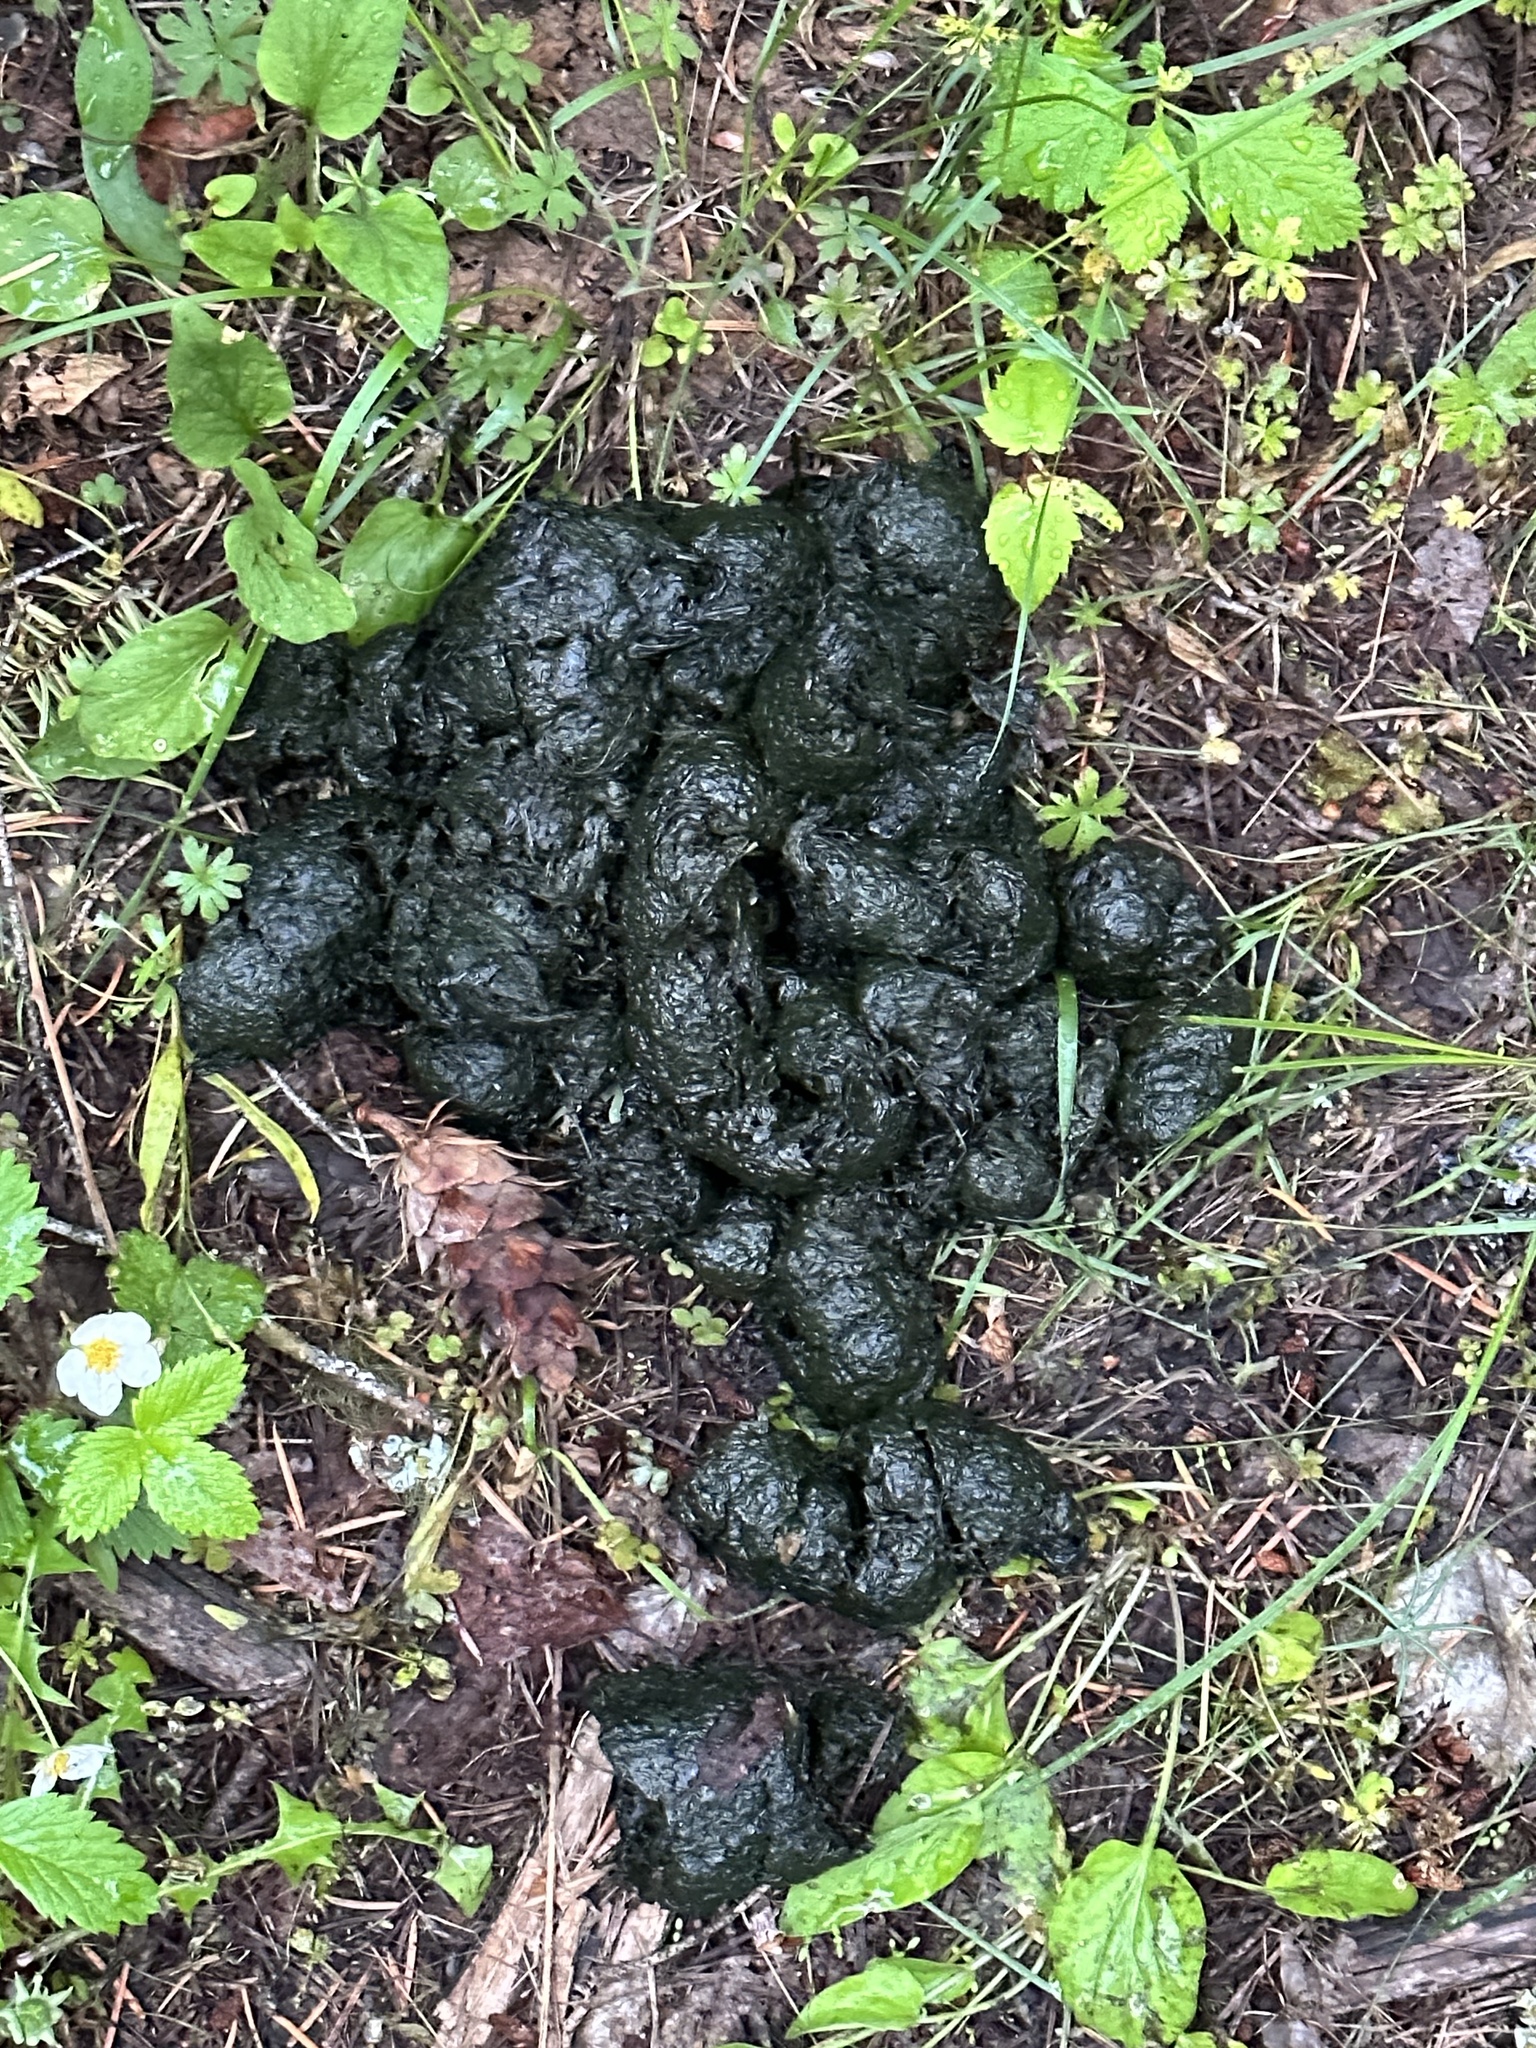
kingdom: Animalia
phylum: Chordata
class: Mammalia
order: Carnivora
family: Ursidae
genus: Ursus
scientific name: Ursus americanus
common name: American black bear
